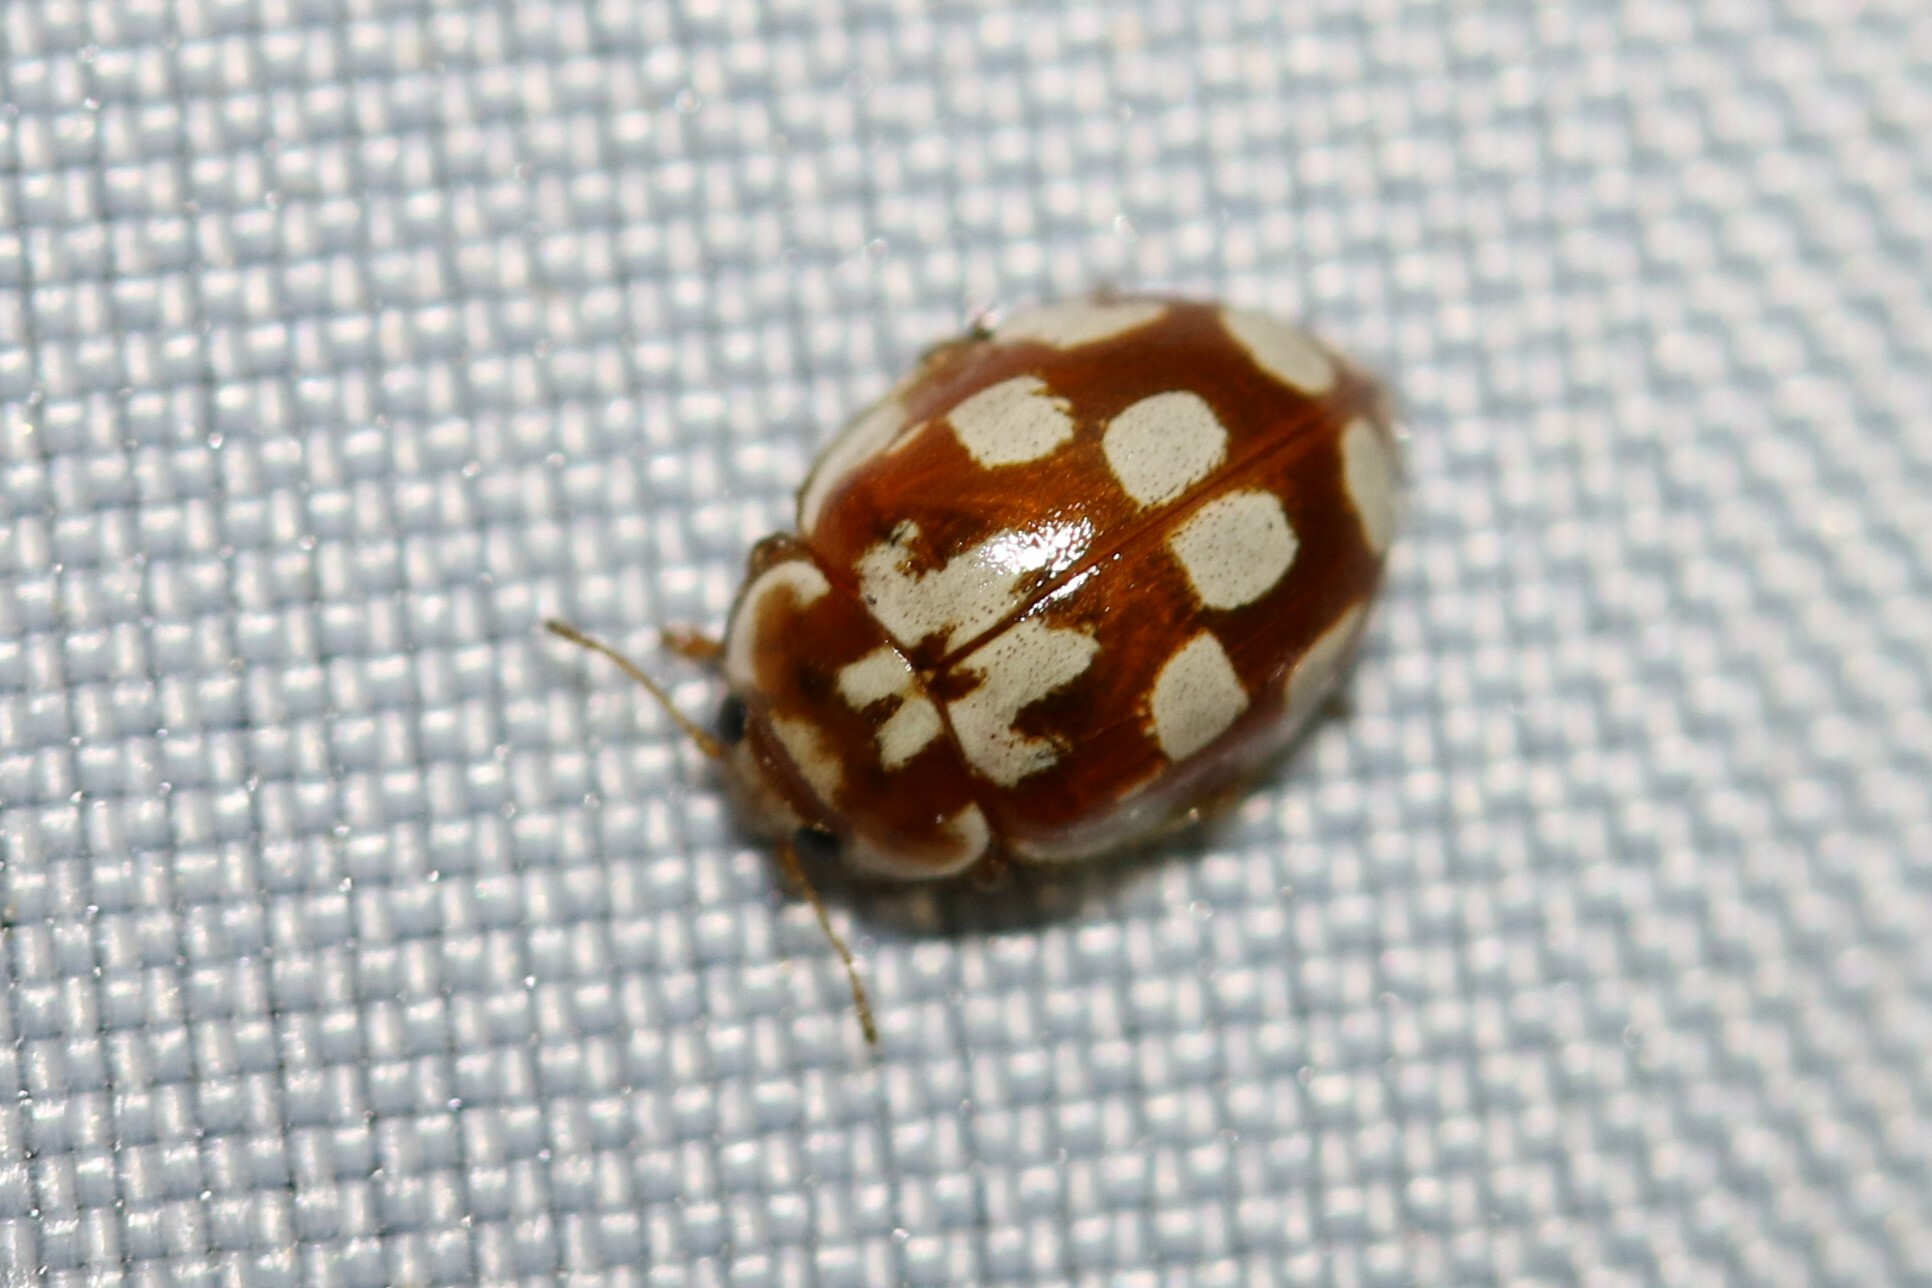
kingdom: Animalia
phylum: Arthropoda
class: Insecta
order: Coleoptera
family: Coccinellidae
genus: Myrrha
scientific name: Myrrha octodecimguttata
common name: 18-spot ladybird
